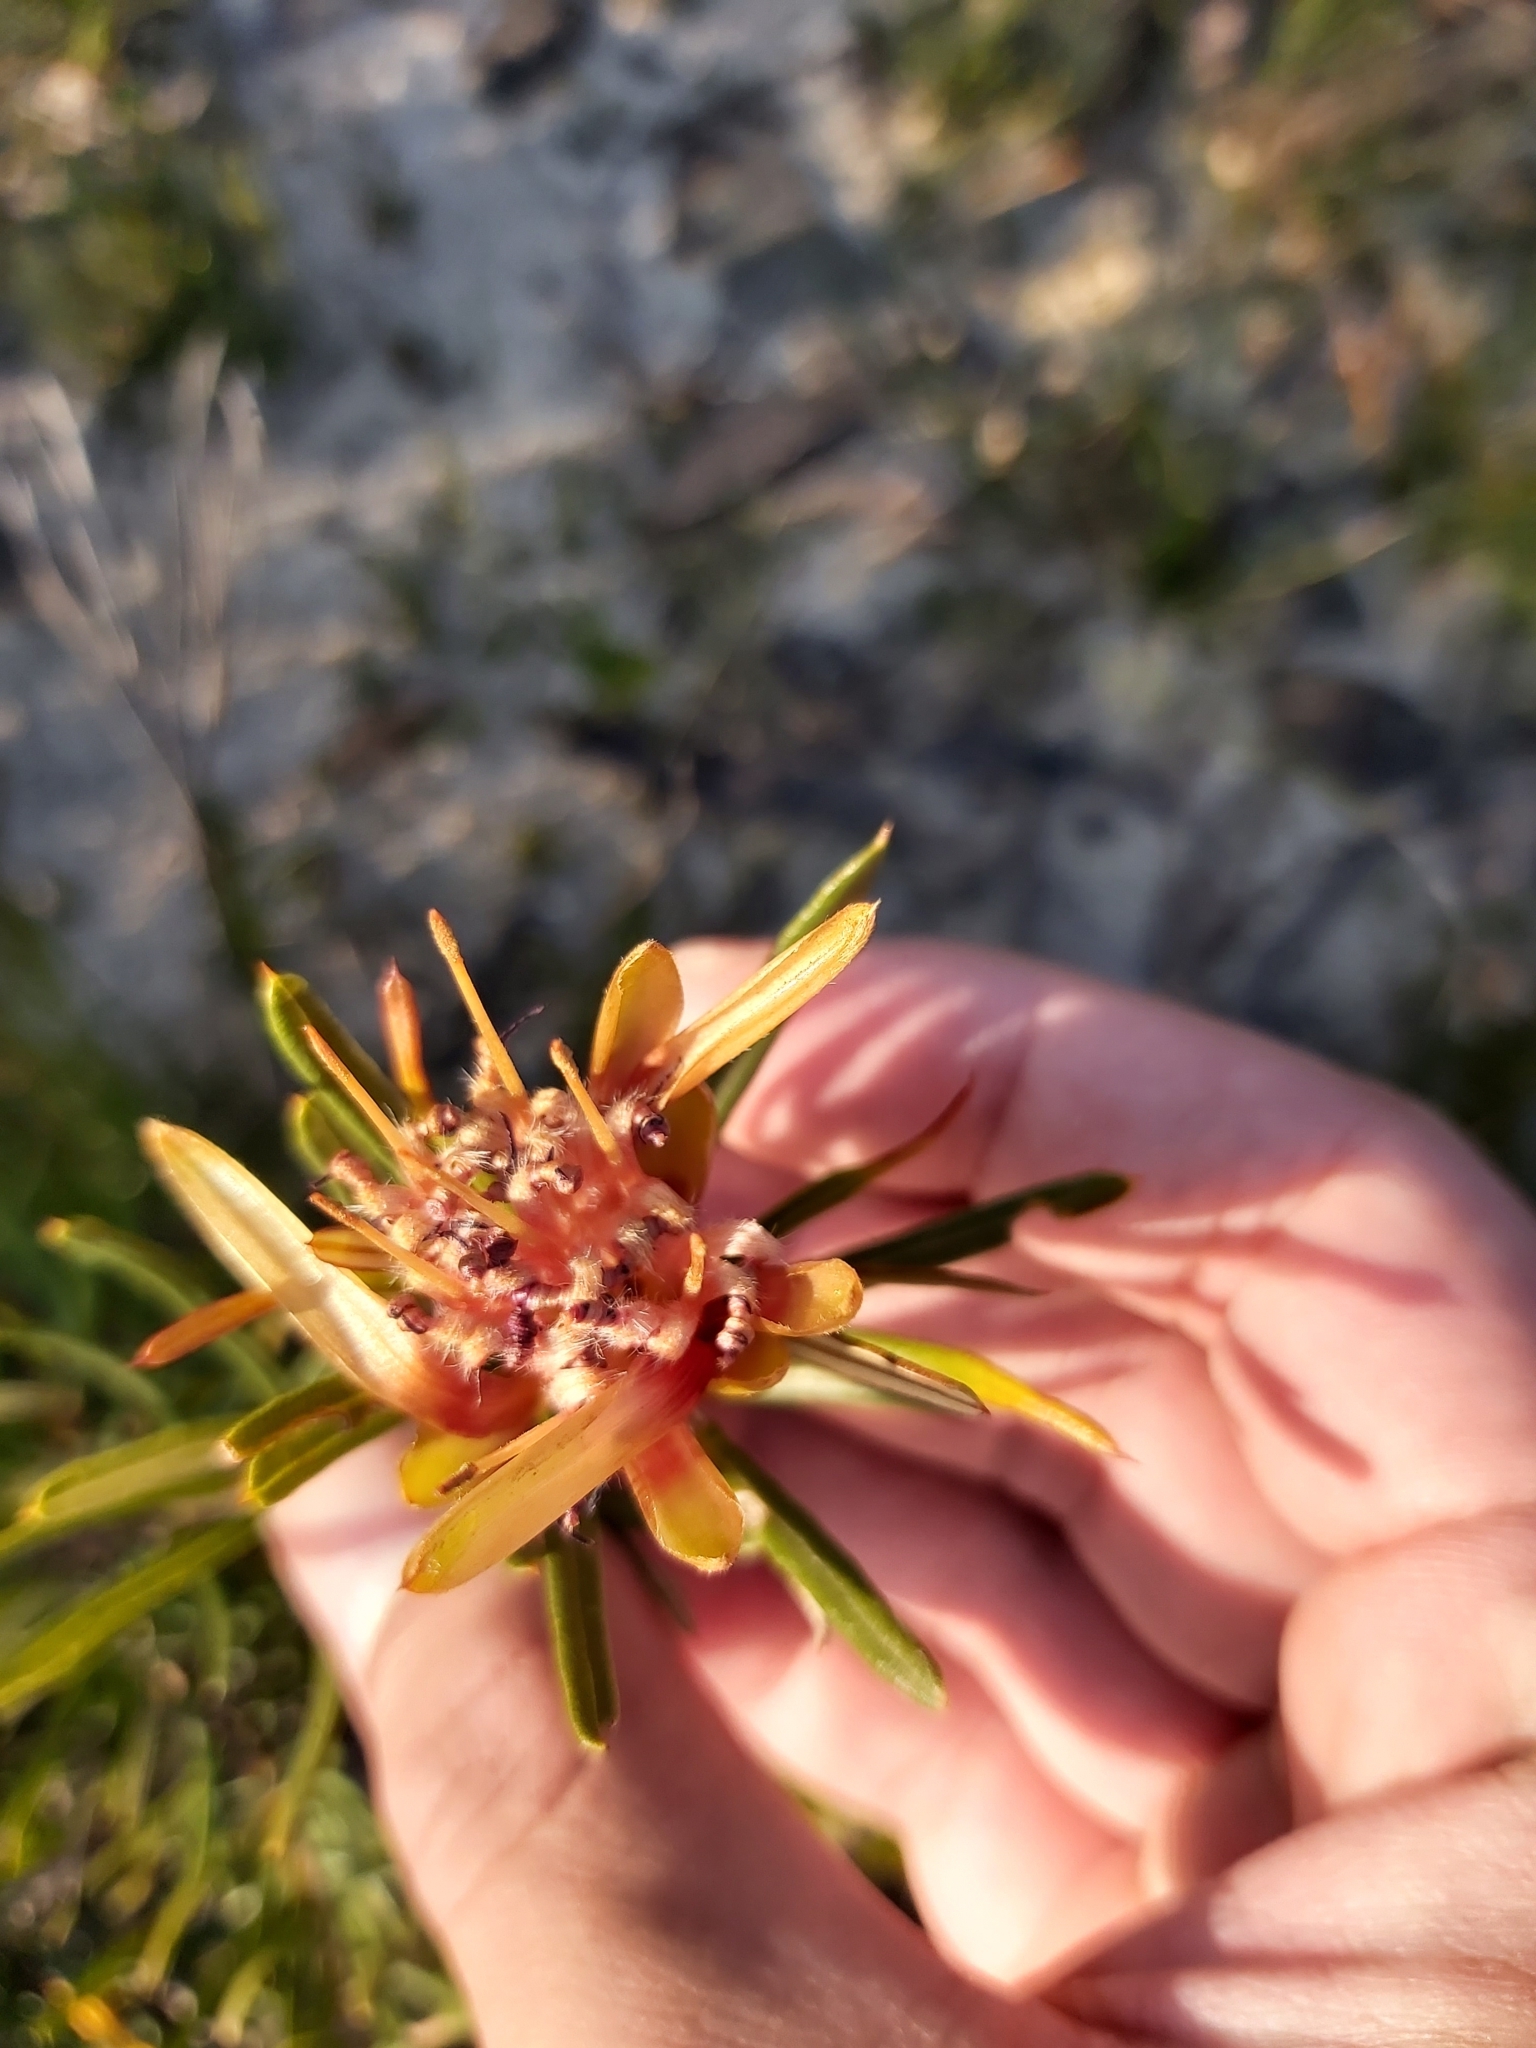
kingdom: Plantae
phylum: Tracheophyta
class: Magnoliopsida
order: Proteales
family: Proteaceae
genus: Lambertia
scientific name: Lambertia formosa
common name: Mountain-devil
